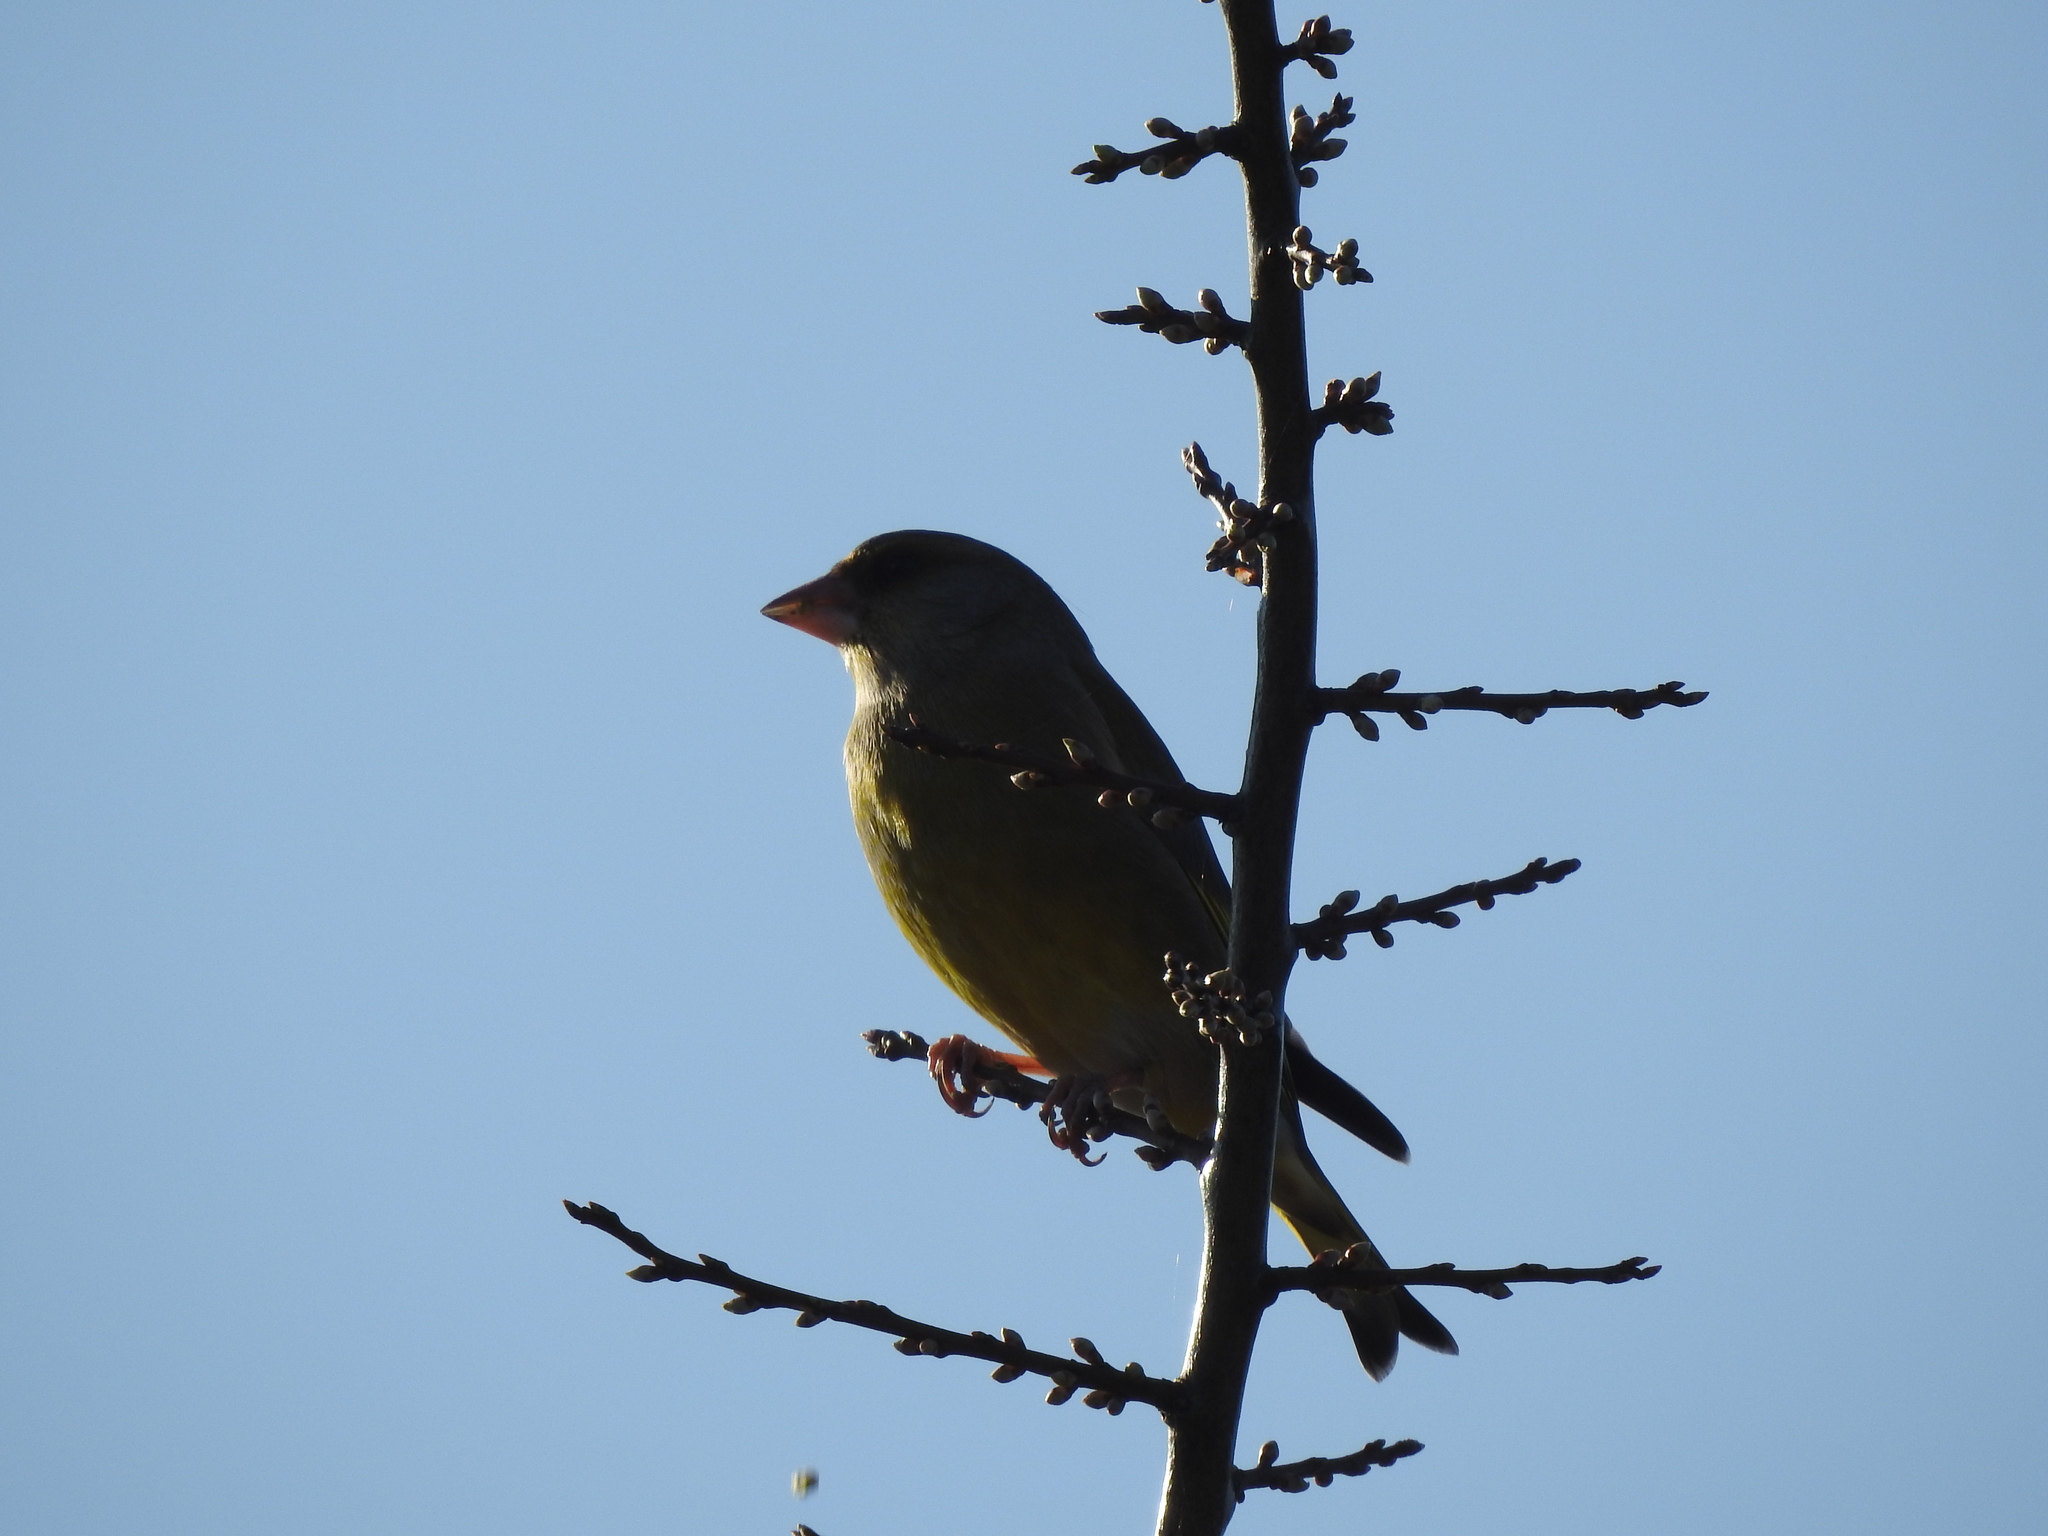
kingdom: Plantae
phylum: Tracheophyta
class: Liliopsida
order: Poales
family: Poaceae
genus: Chloris
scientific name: Chloris chloris
